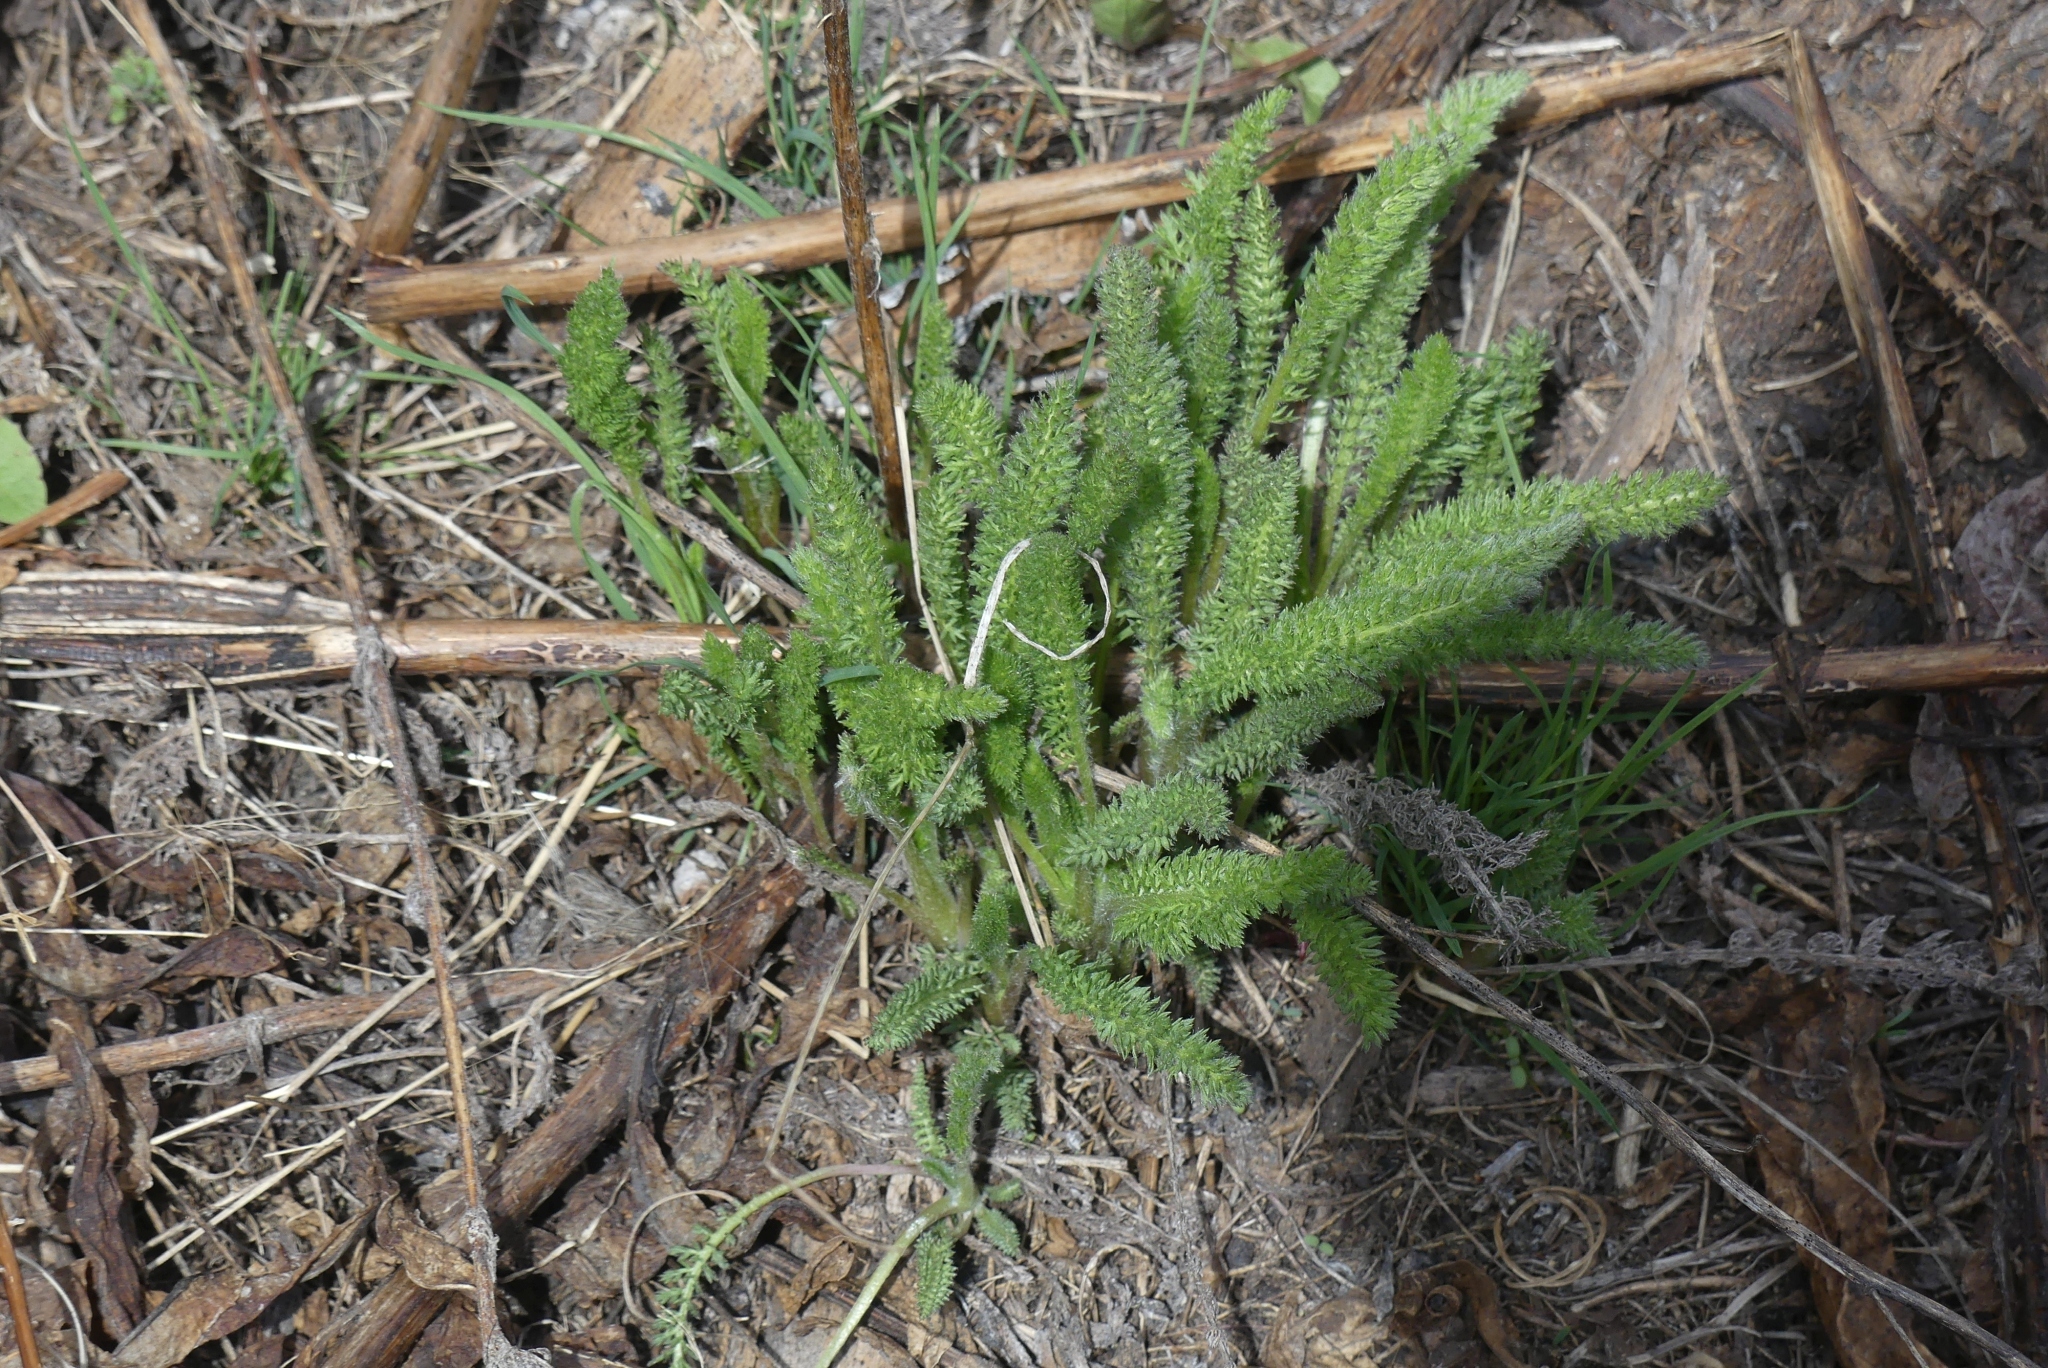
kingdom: Plantae
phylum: Tracheophyta
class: Magnoliopsida
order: Asterales
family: Asteraceae
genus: Achillea
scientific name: Achillea millefolium
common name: Yarrow
